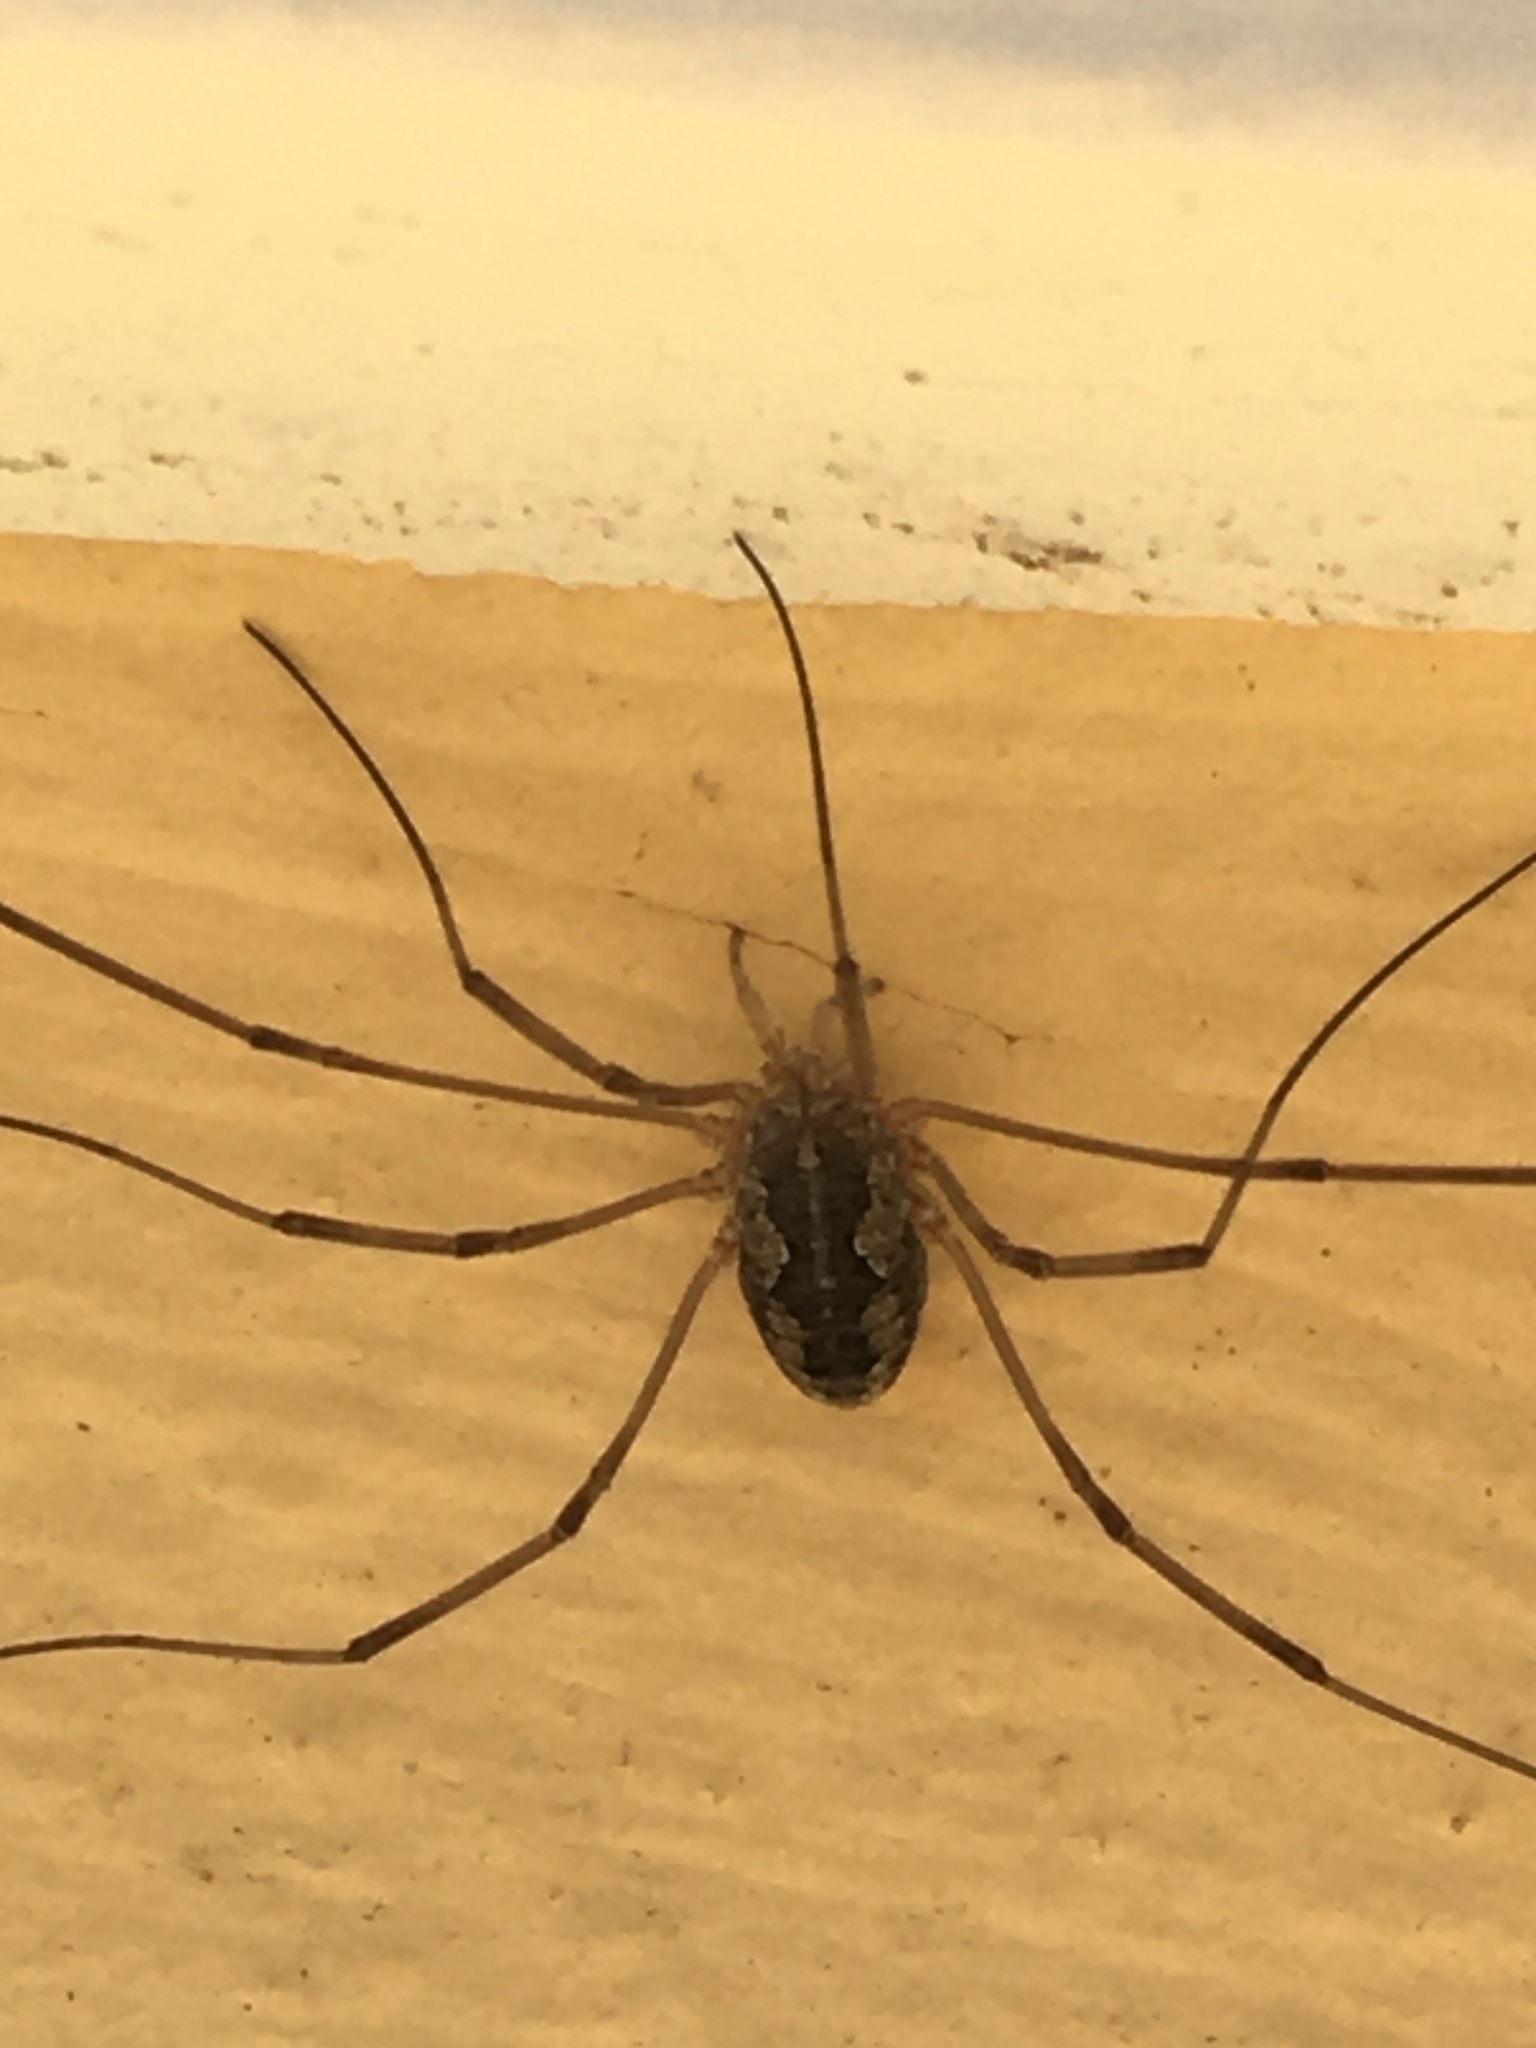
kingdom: Animalia
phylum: Arthropoda
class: Arachnida
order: Opiliones
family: Phalangiidae
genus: Phalangium
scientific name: Phalangium opilio
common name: Daddy longleg
